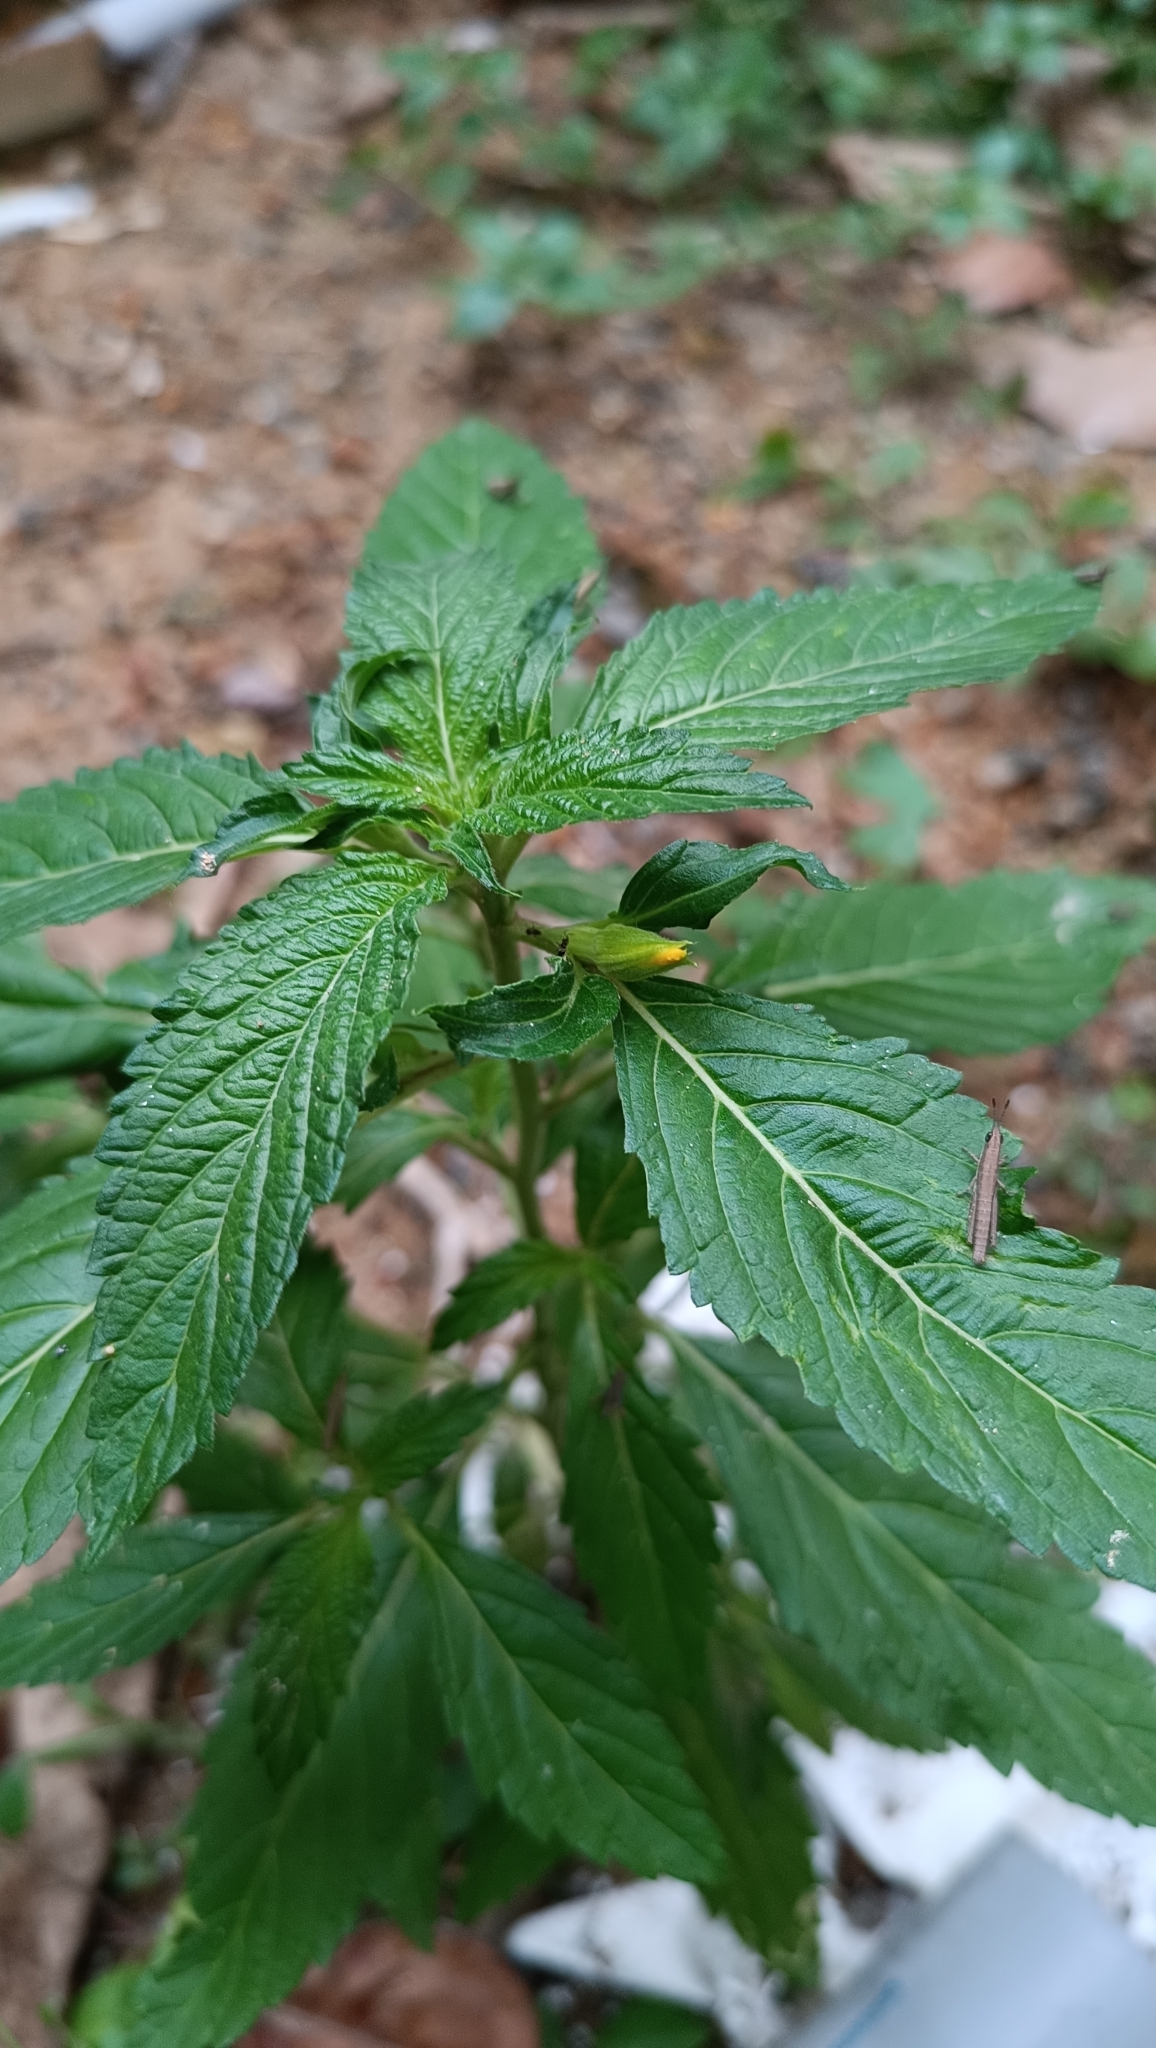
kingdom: Plantae
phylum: Tracheophyta
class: Magnoliopsida
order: Malpighiales
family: Turneraceae
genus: Turnera
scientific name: Turnera ulmifolia
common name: Ramgoat dashalong
